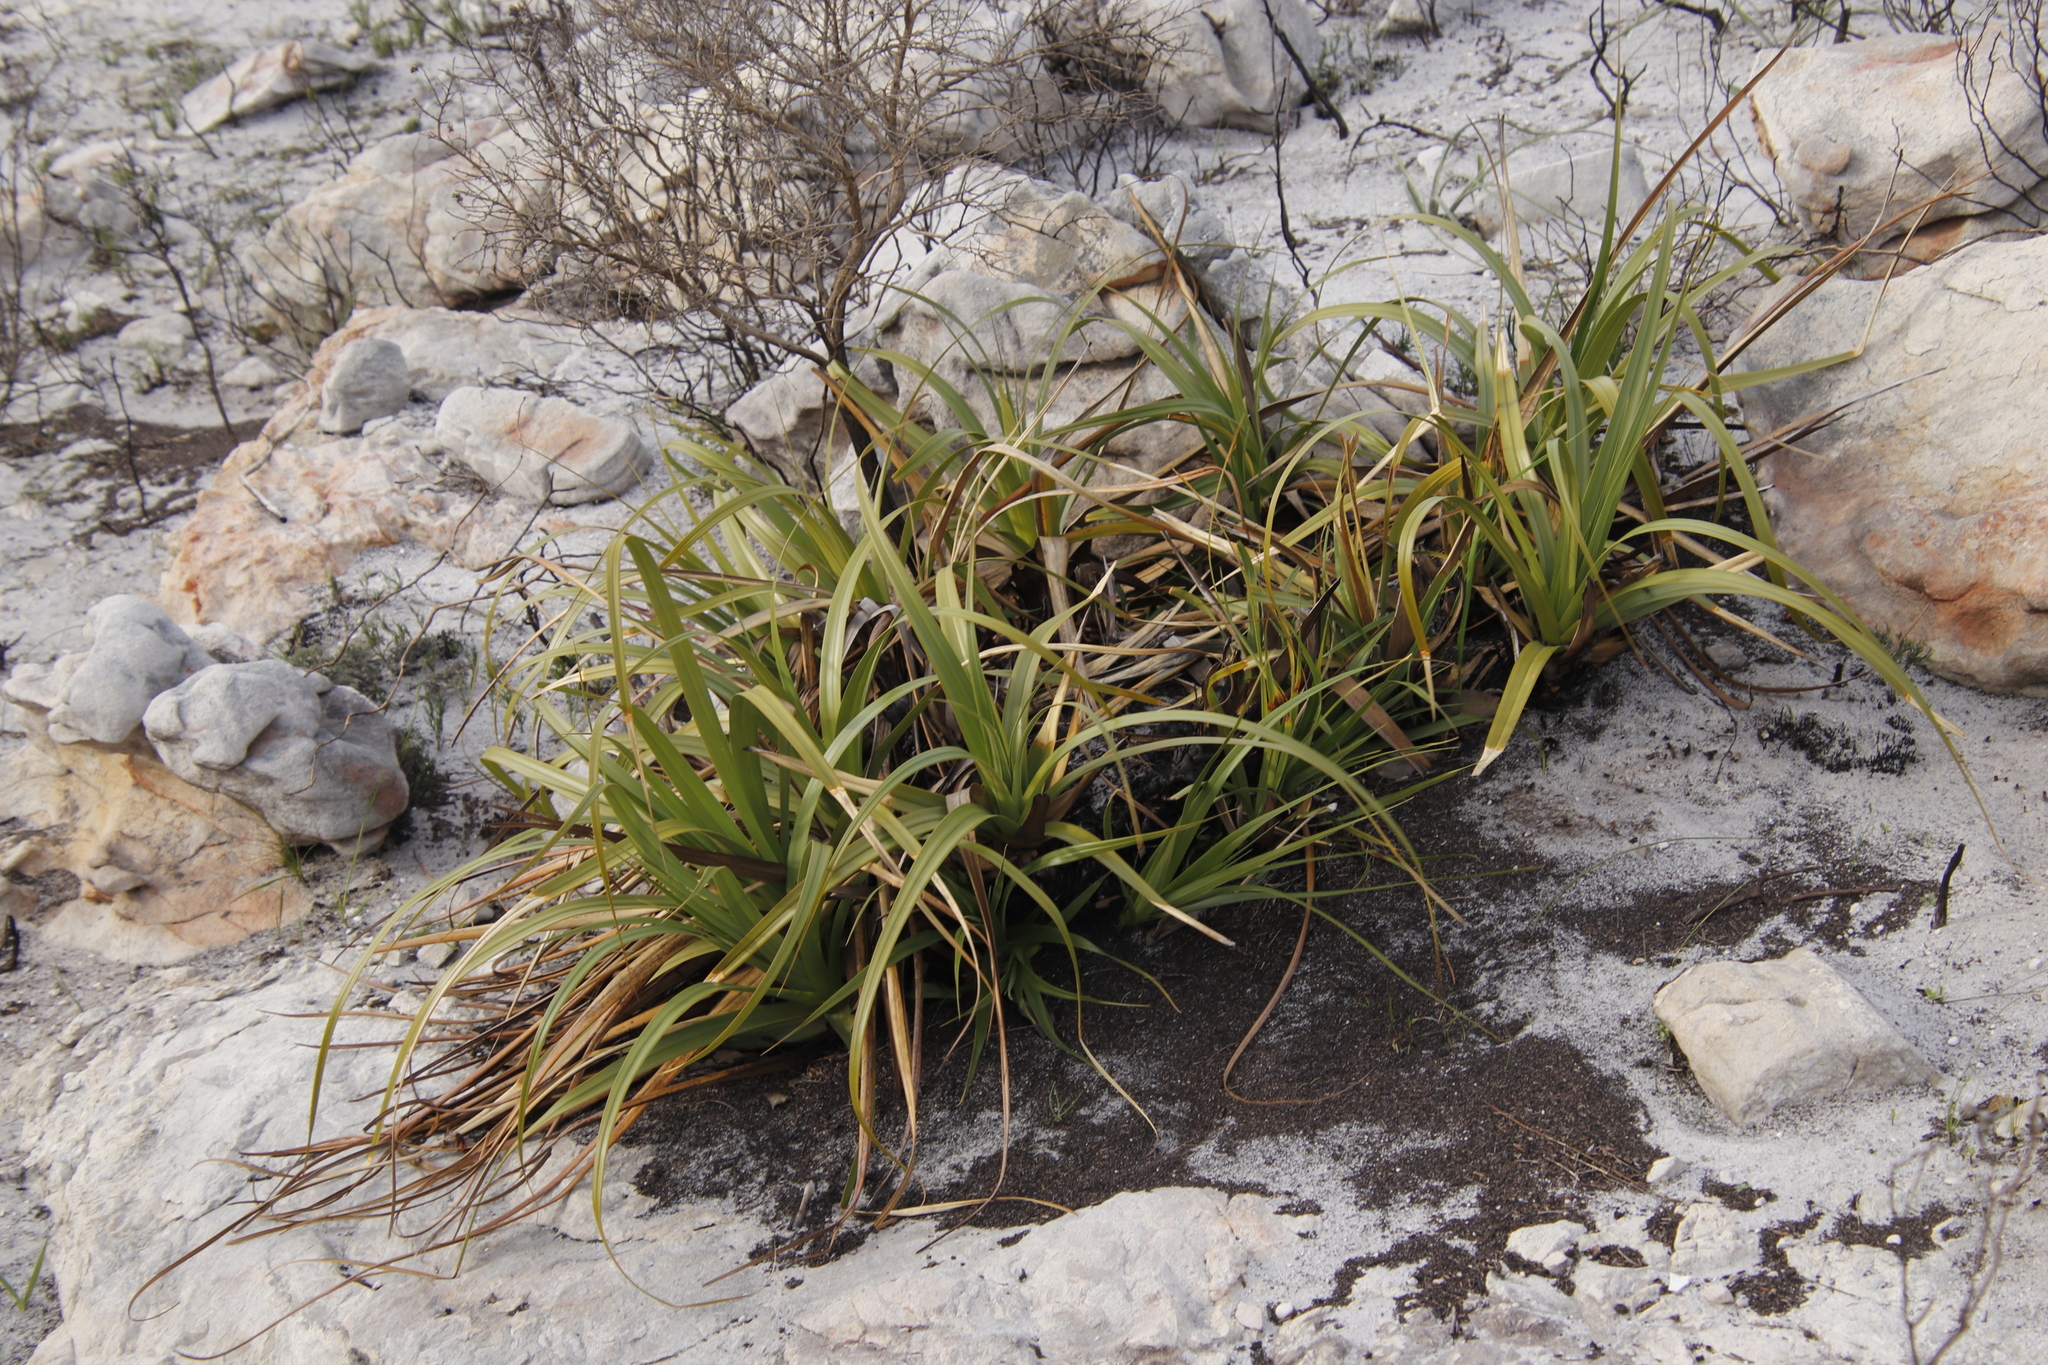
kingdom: Plantae
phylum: Tracheophyta
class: Liliopsida
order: Poales
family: Cyperaceae
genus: Tetraria
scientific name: Tetraria thermalis
